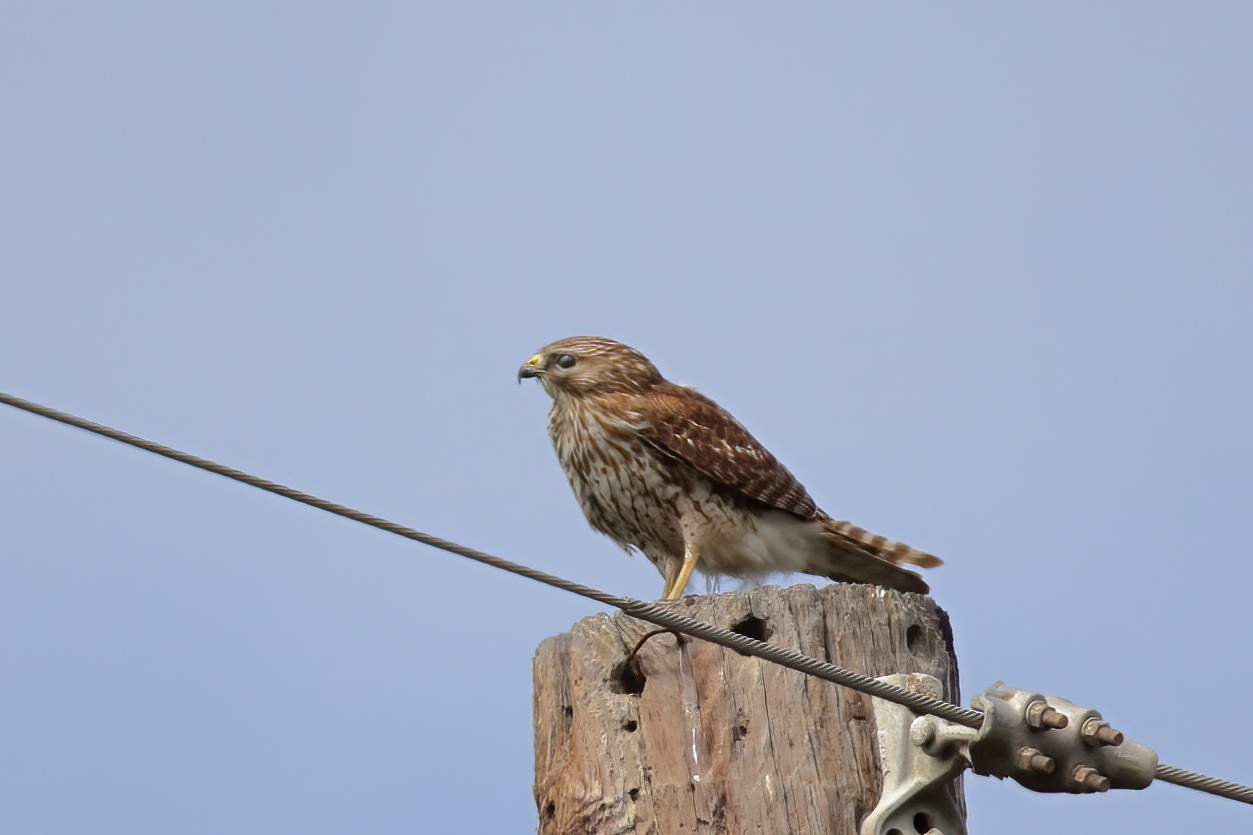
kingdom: Animalia
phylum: Chordata
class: Aves
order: Accipitriformes
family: Accipitridae
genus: Buteo
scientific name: Buteo lineatus
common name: Red-shouldered hawk
